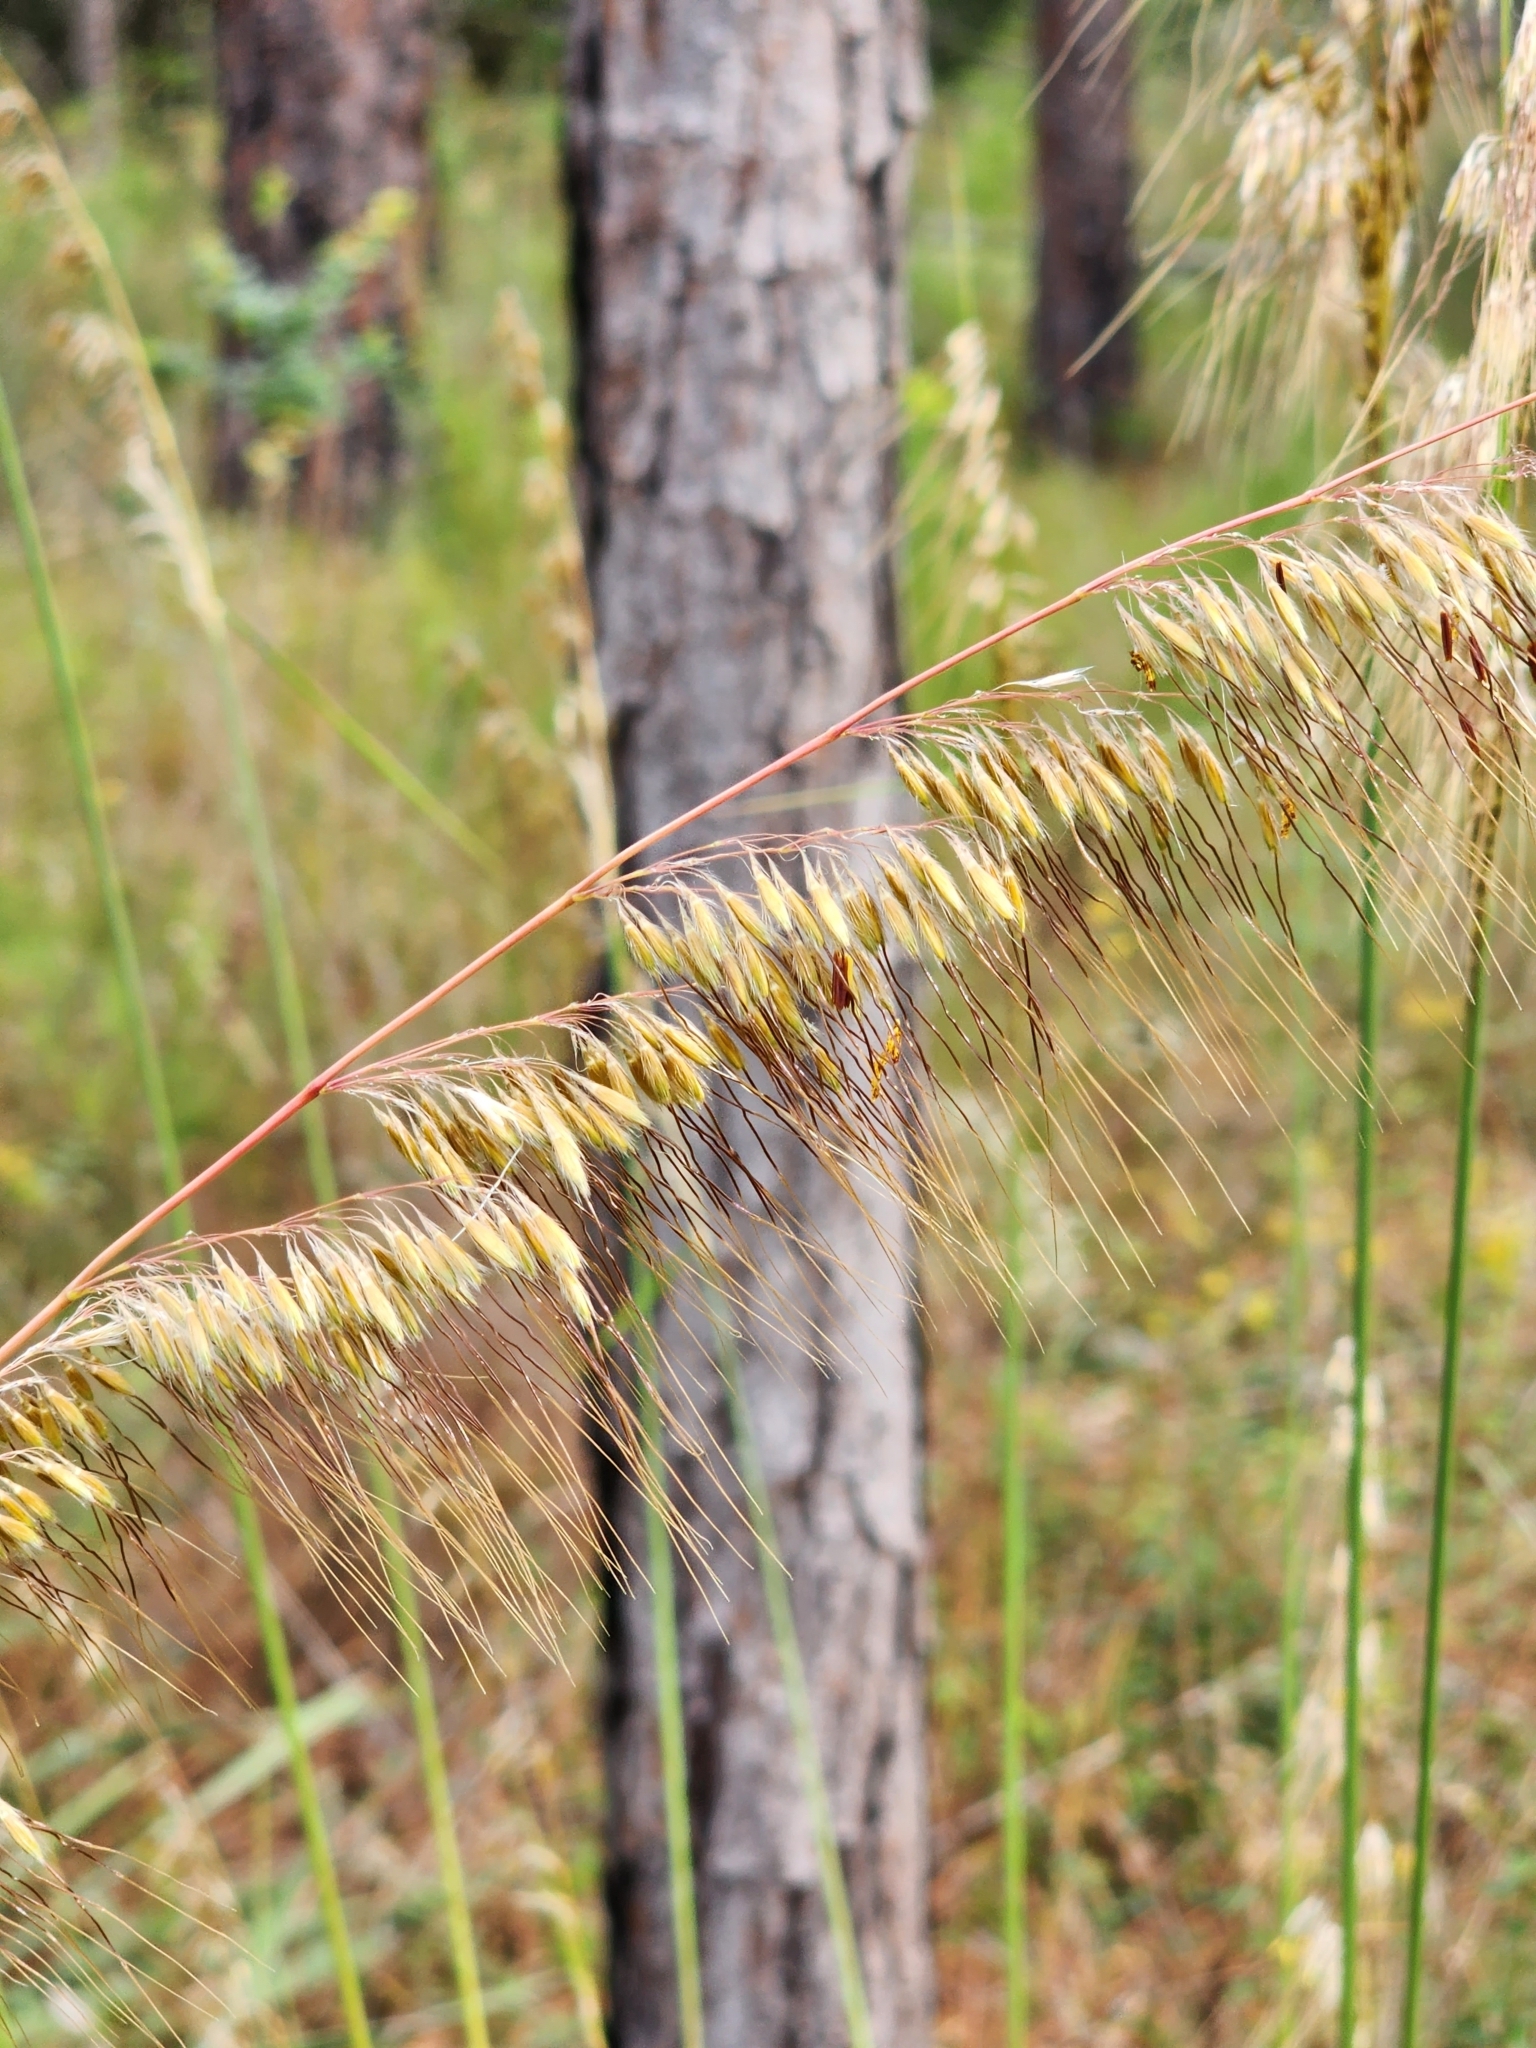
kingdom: Plantae
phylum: Tracheophyta
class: Liliopsida
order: Poales
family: Poaceae
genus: Sorghastrum
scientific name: Sorghastrum secundum
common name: Lopsided indian grass
